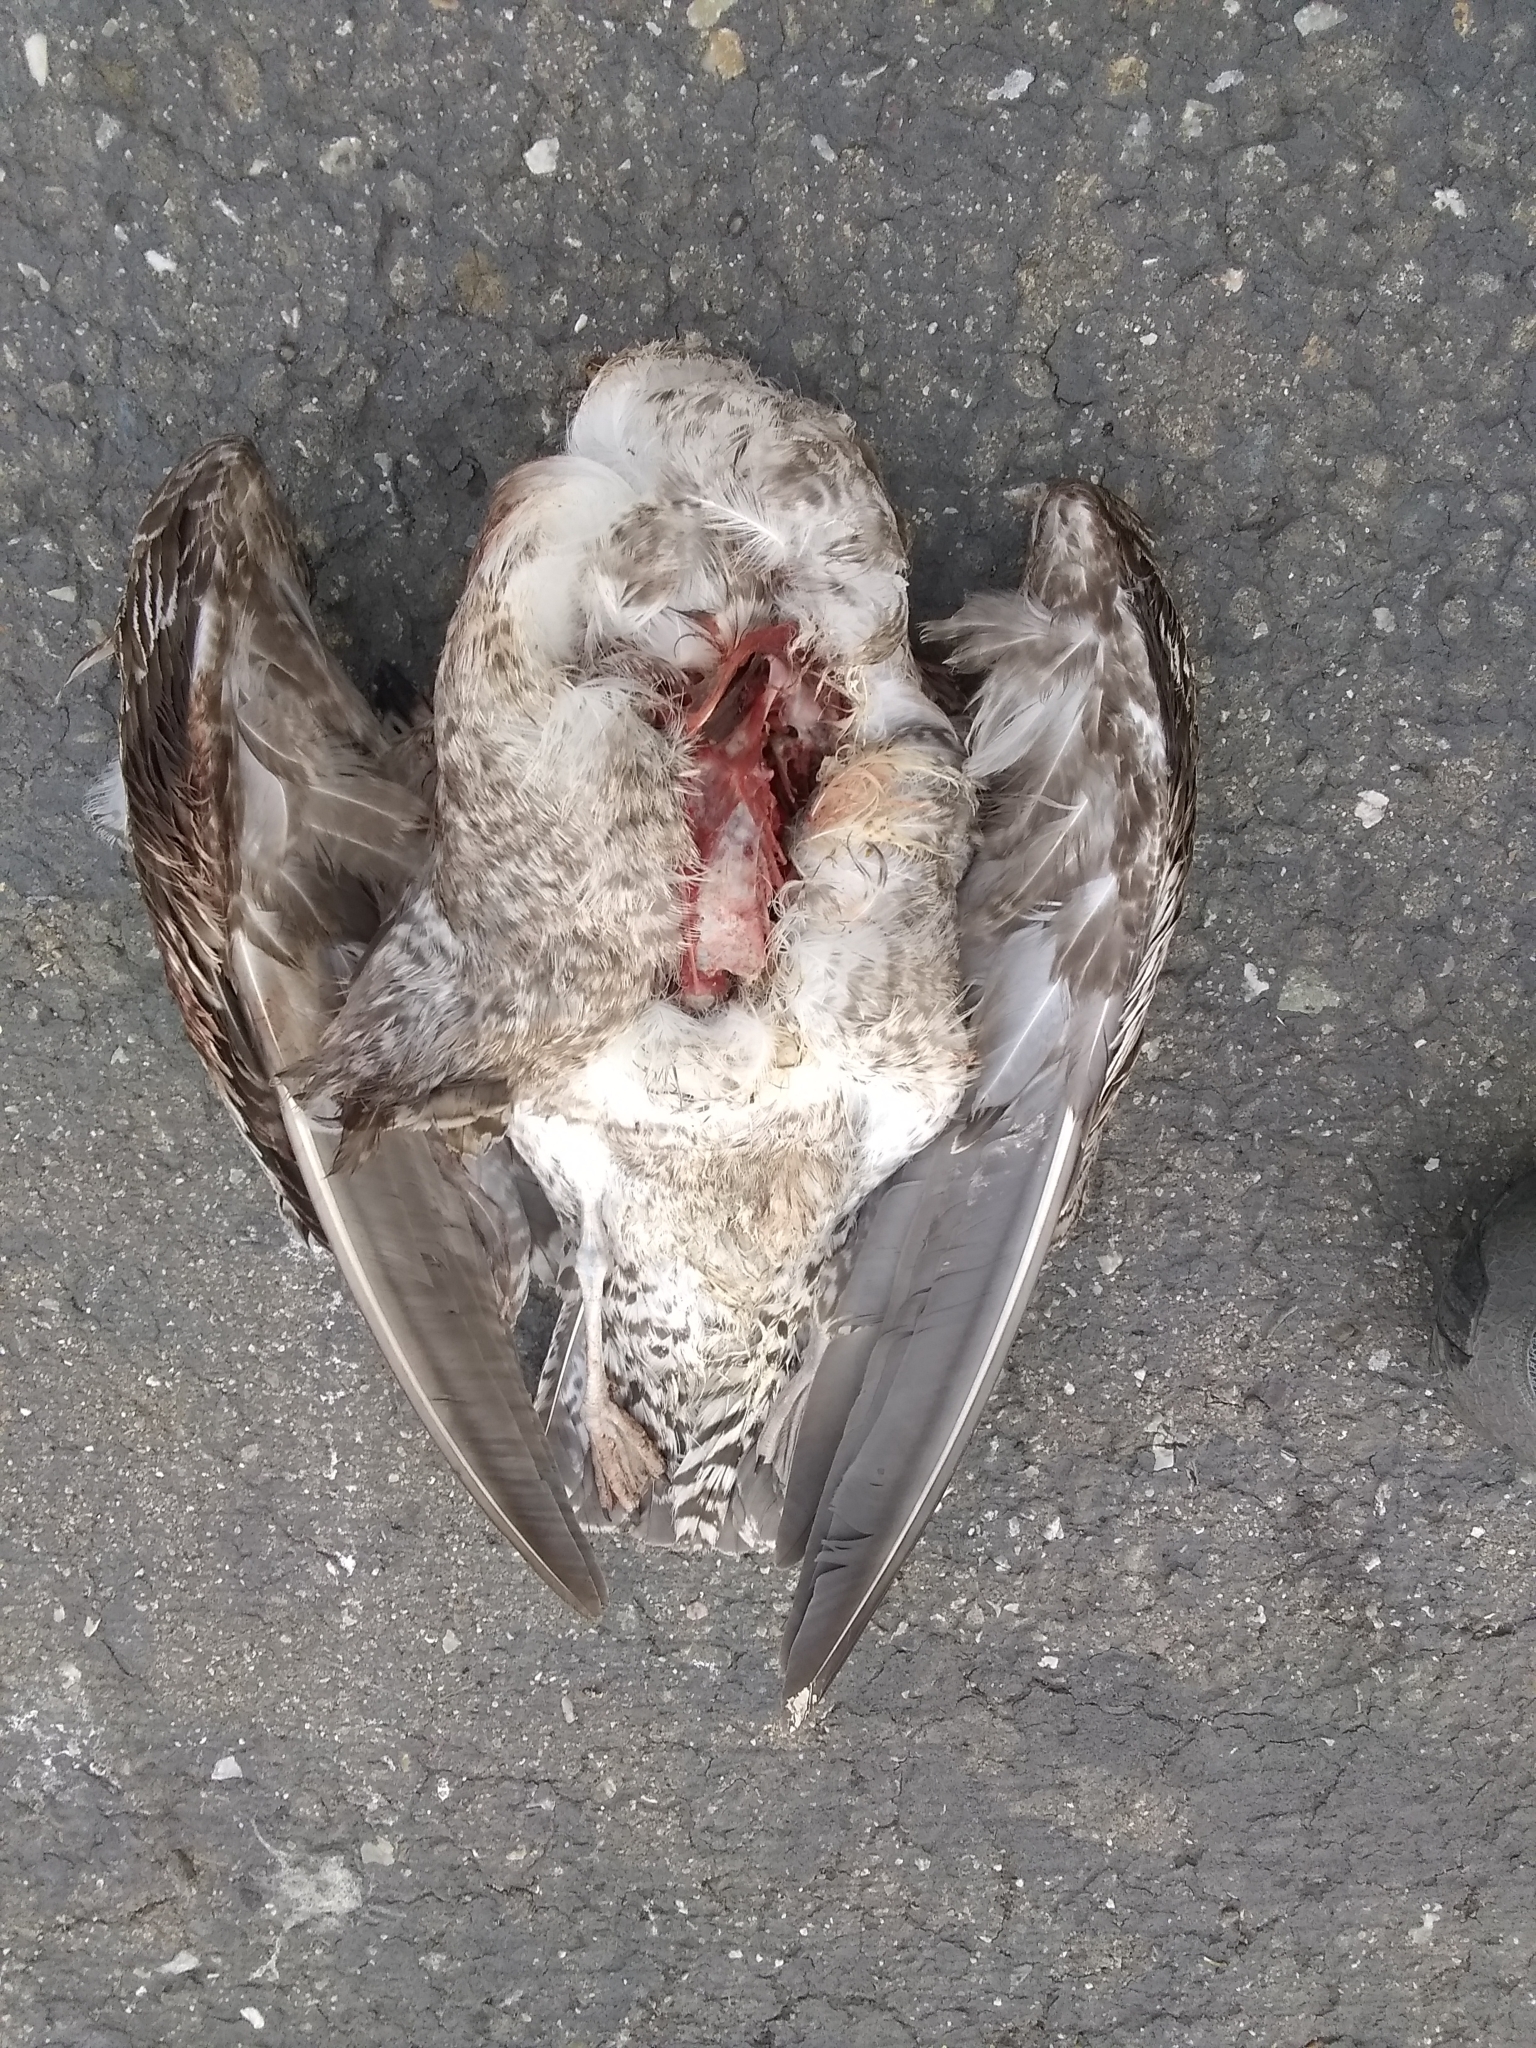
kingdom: Animalia
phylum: Chordata
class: Aves
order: Charadriiformes
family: Laridae
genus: Larus
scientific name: Larus occidentalis
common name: Western gull
